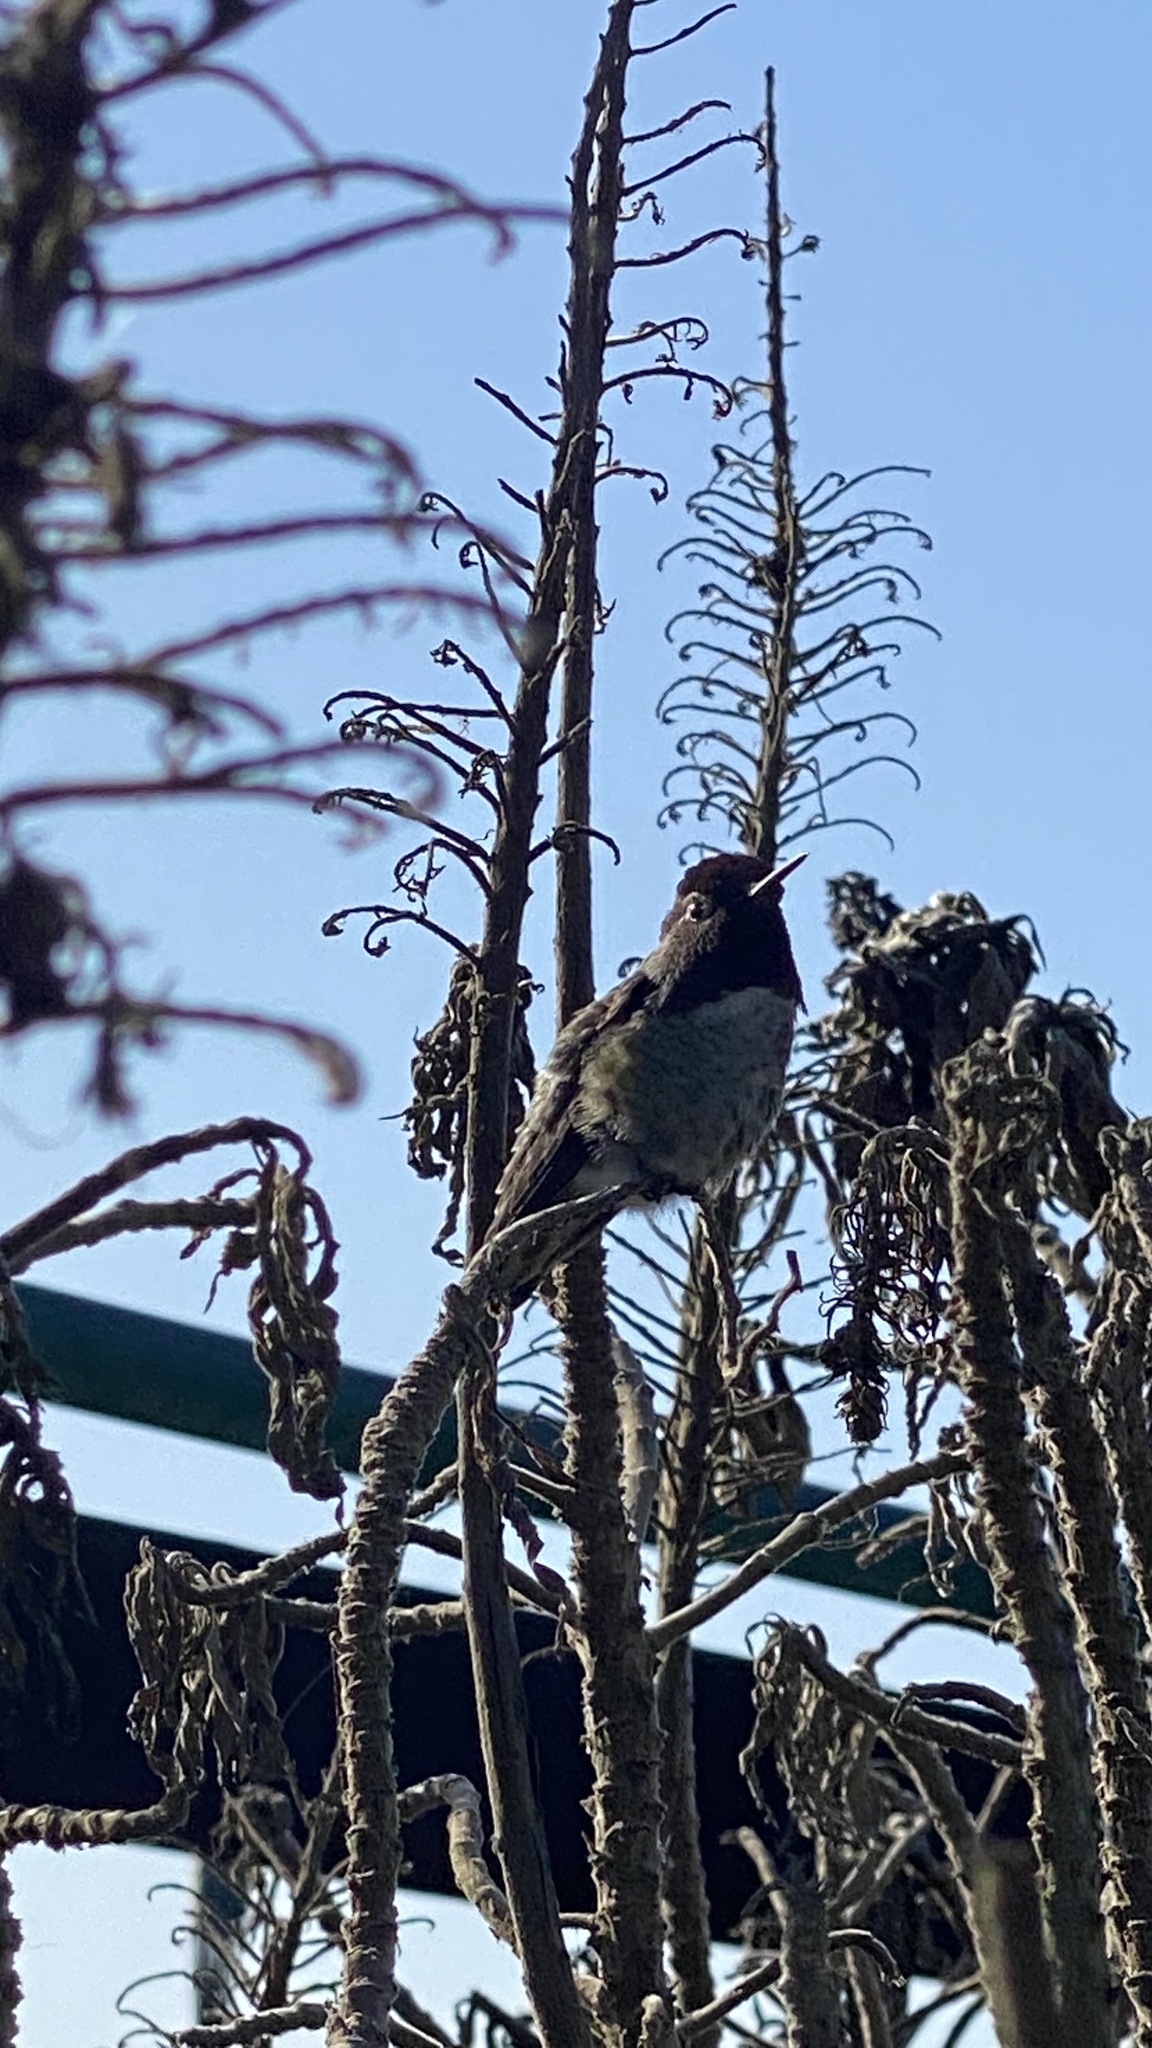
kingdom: Animalia
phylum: Chordata
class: Aves
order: Apodiformes
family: Trochilidae
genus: Calypte
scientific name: Calypte anna
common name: Anna's hummingbird
